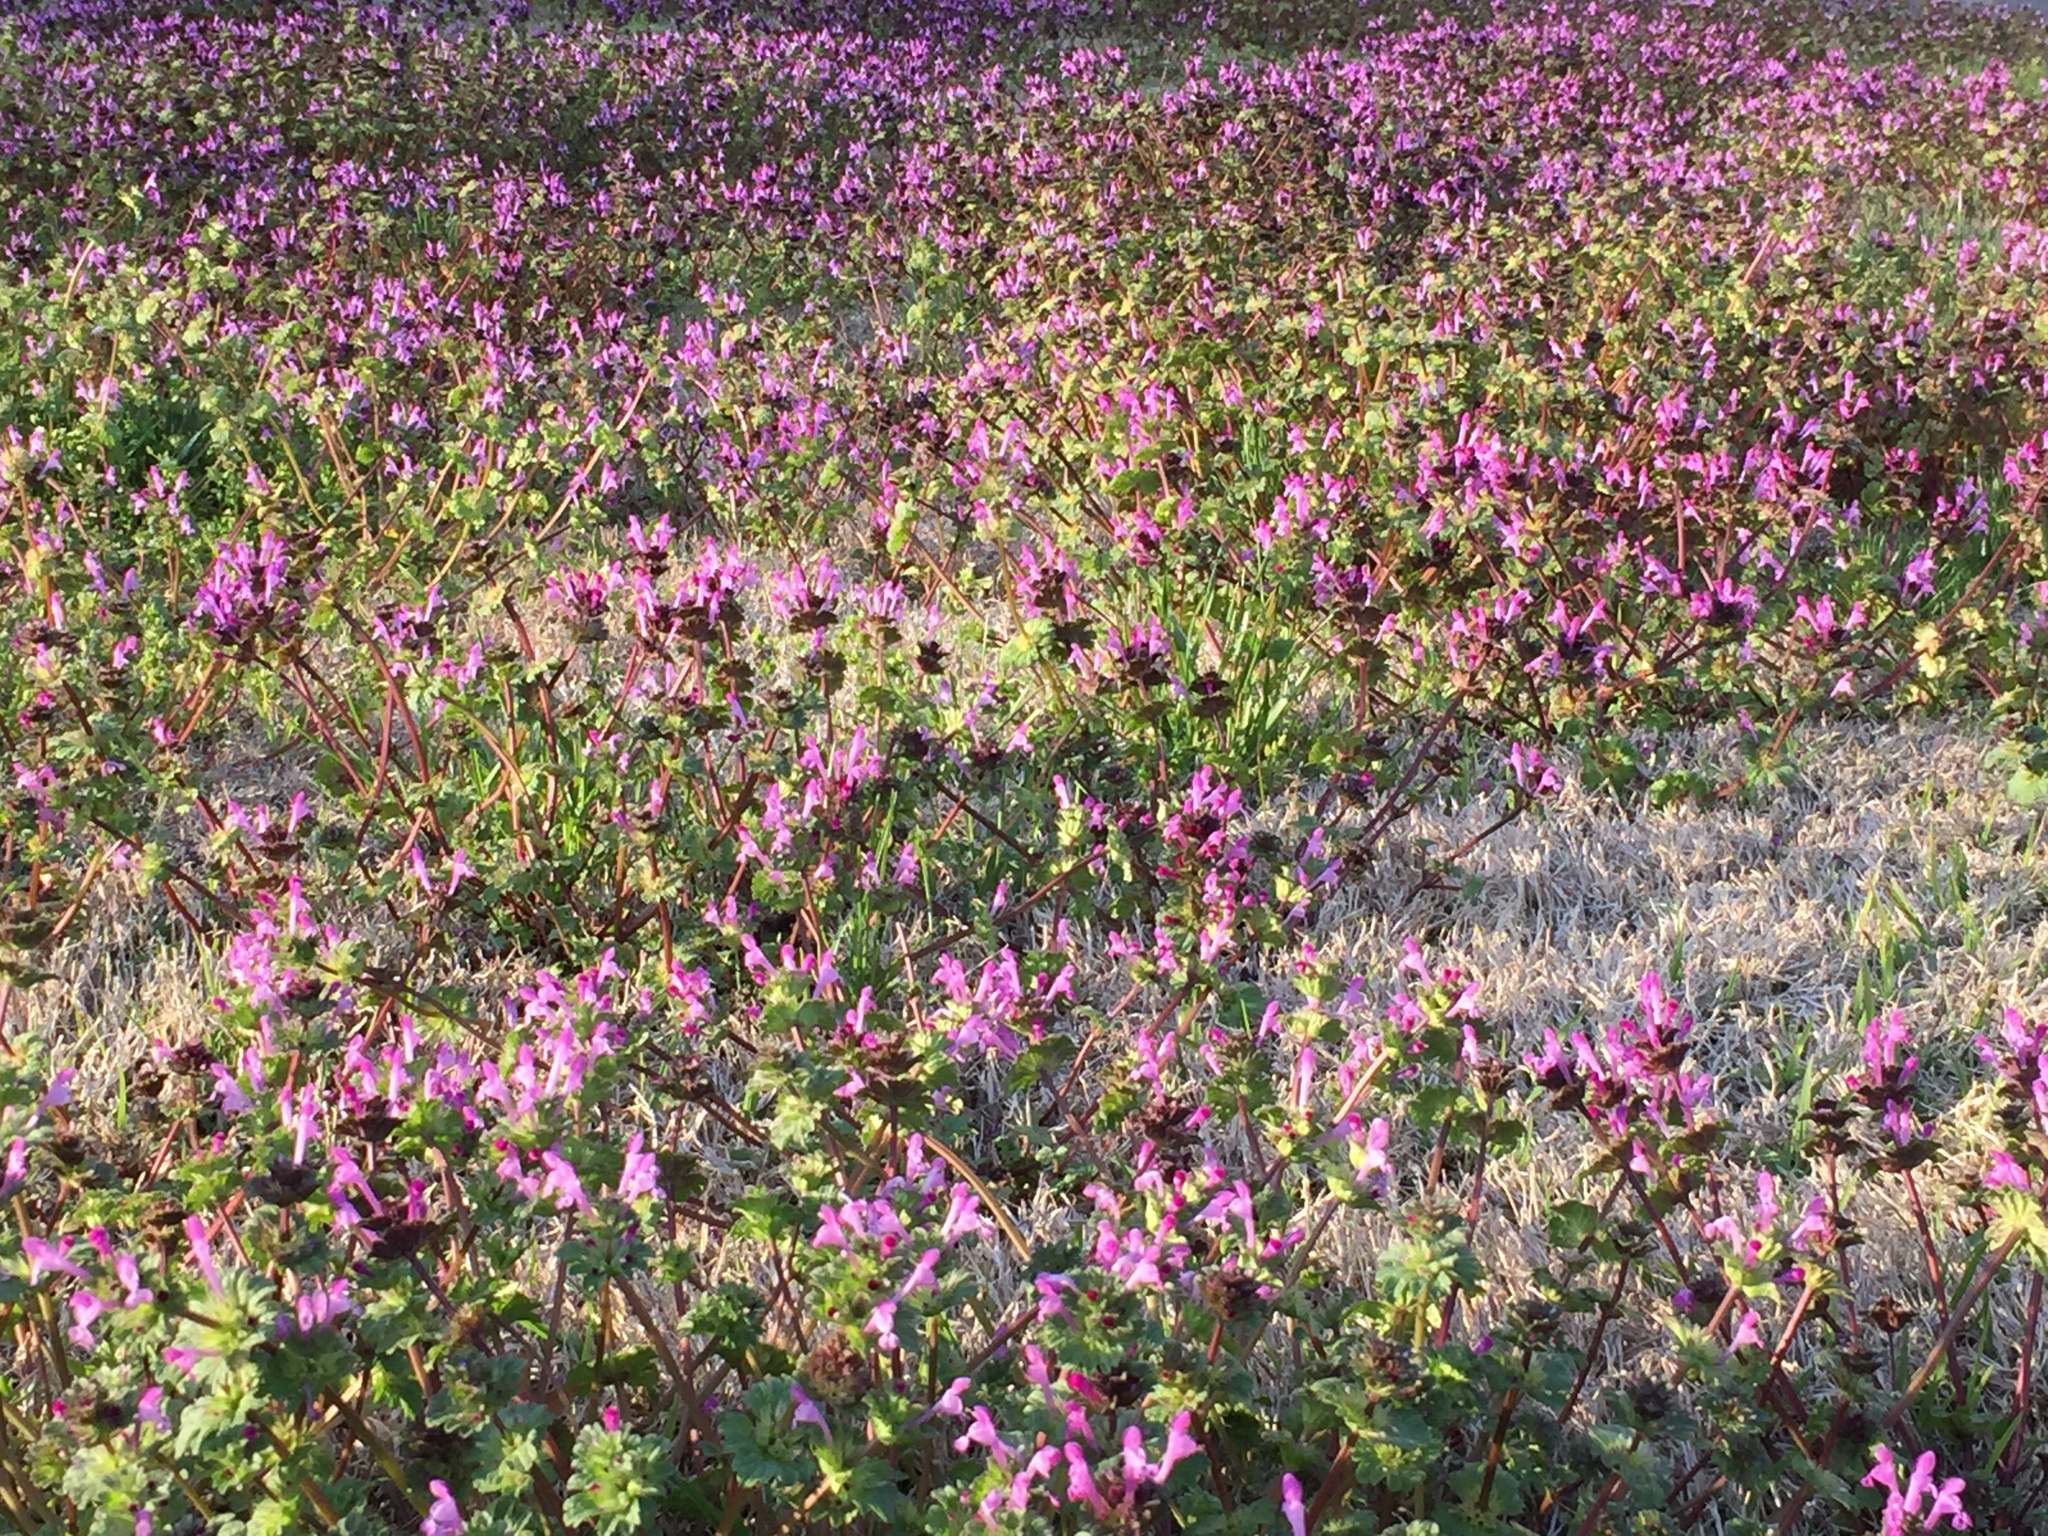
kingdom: Plantae
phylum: Tracheophyta
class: Magnoliopsida
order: Lamiales
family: Lamiaceae
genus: Lamium
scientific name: Lamium amplexicaule
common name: Henbit dead-nettle
